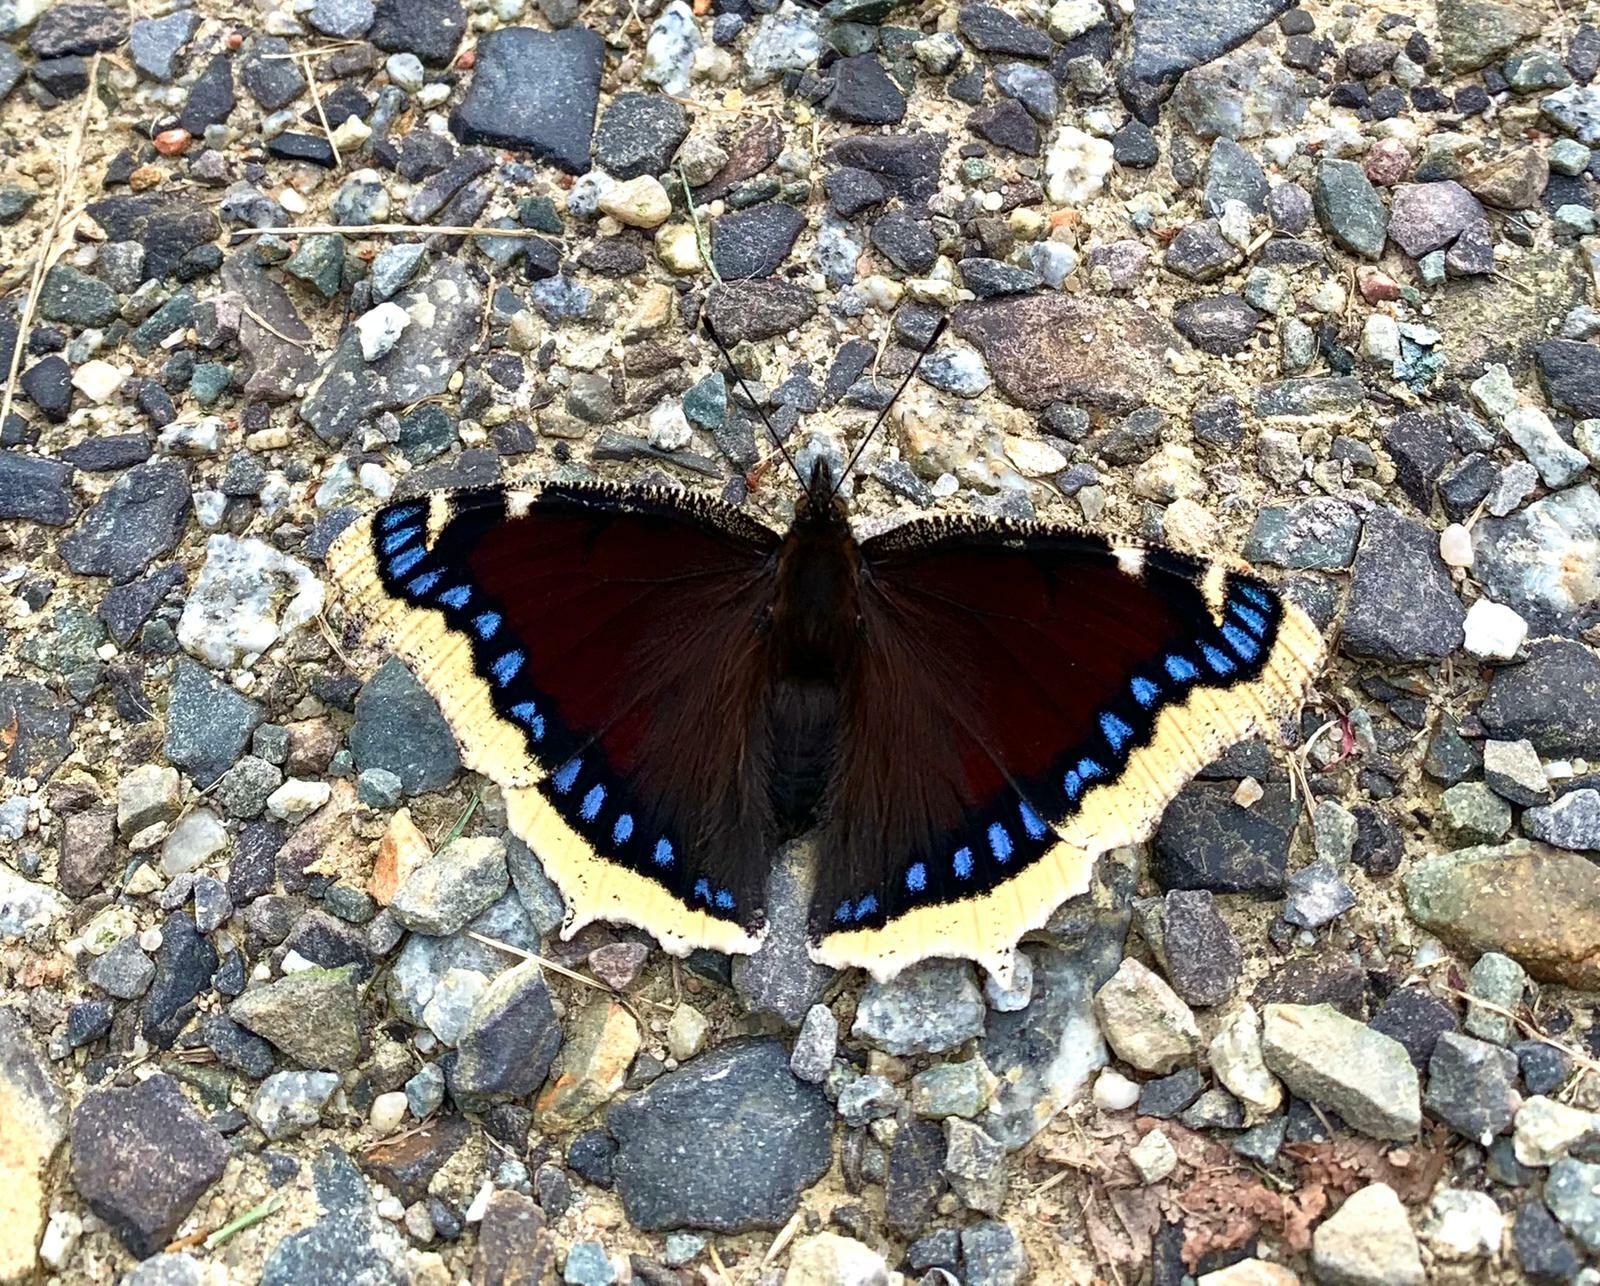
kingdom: Animalia
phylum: Arthropoda
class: Insecta
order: Lepidoptera
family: Nymphalidae
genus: Nymphalis
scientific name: Nymphalis antiopa
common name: Camberwell beauty
